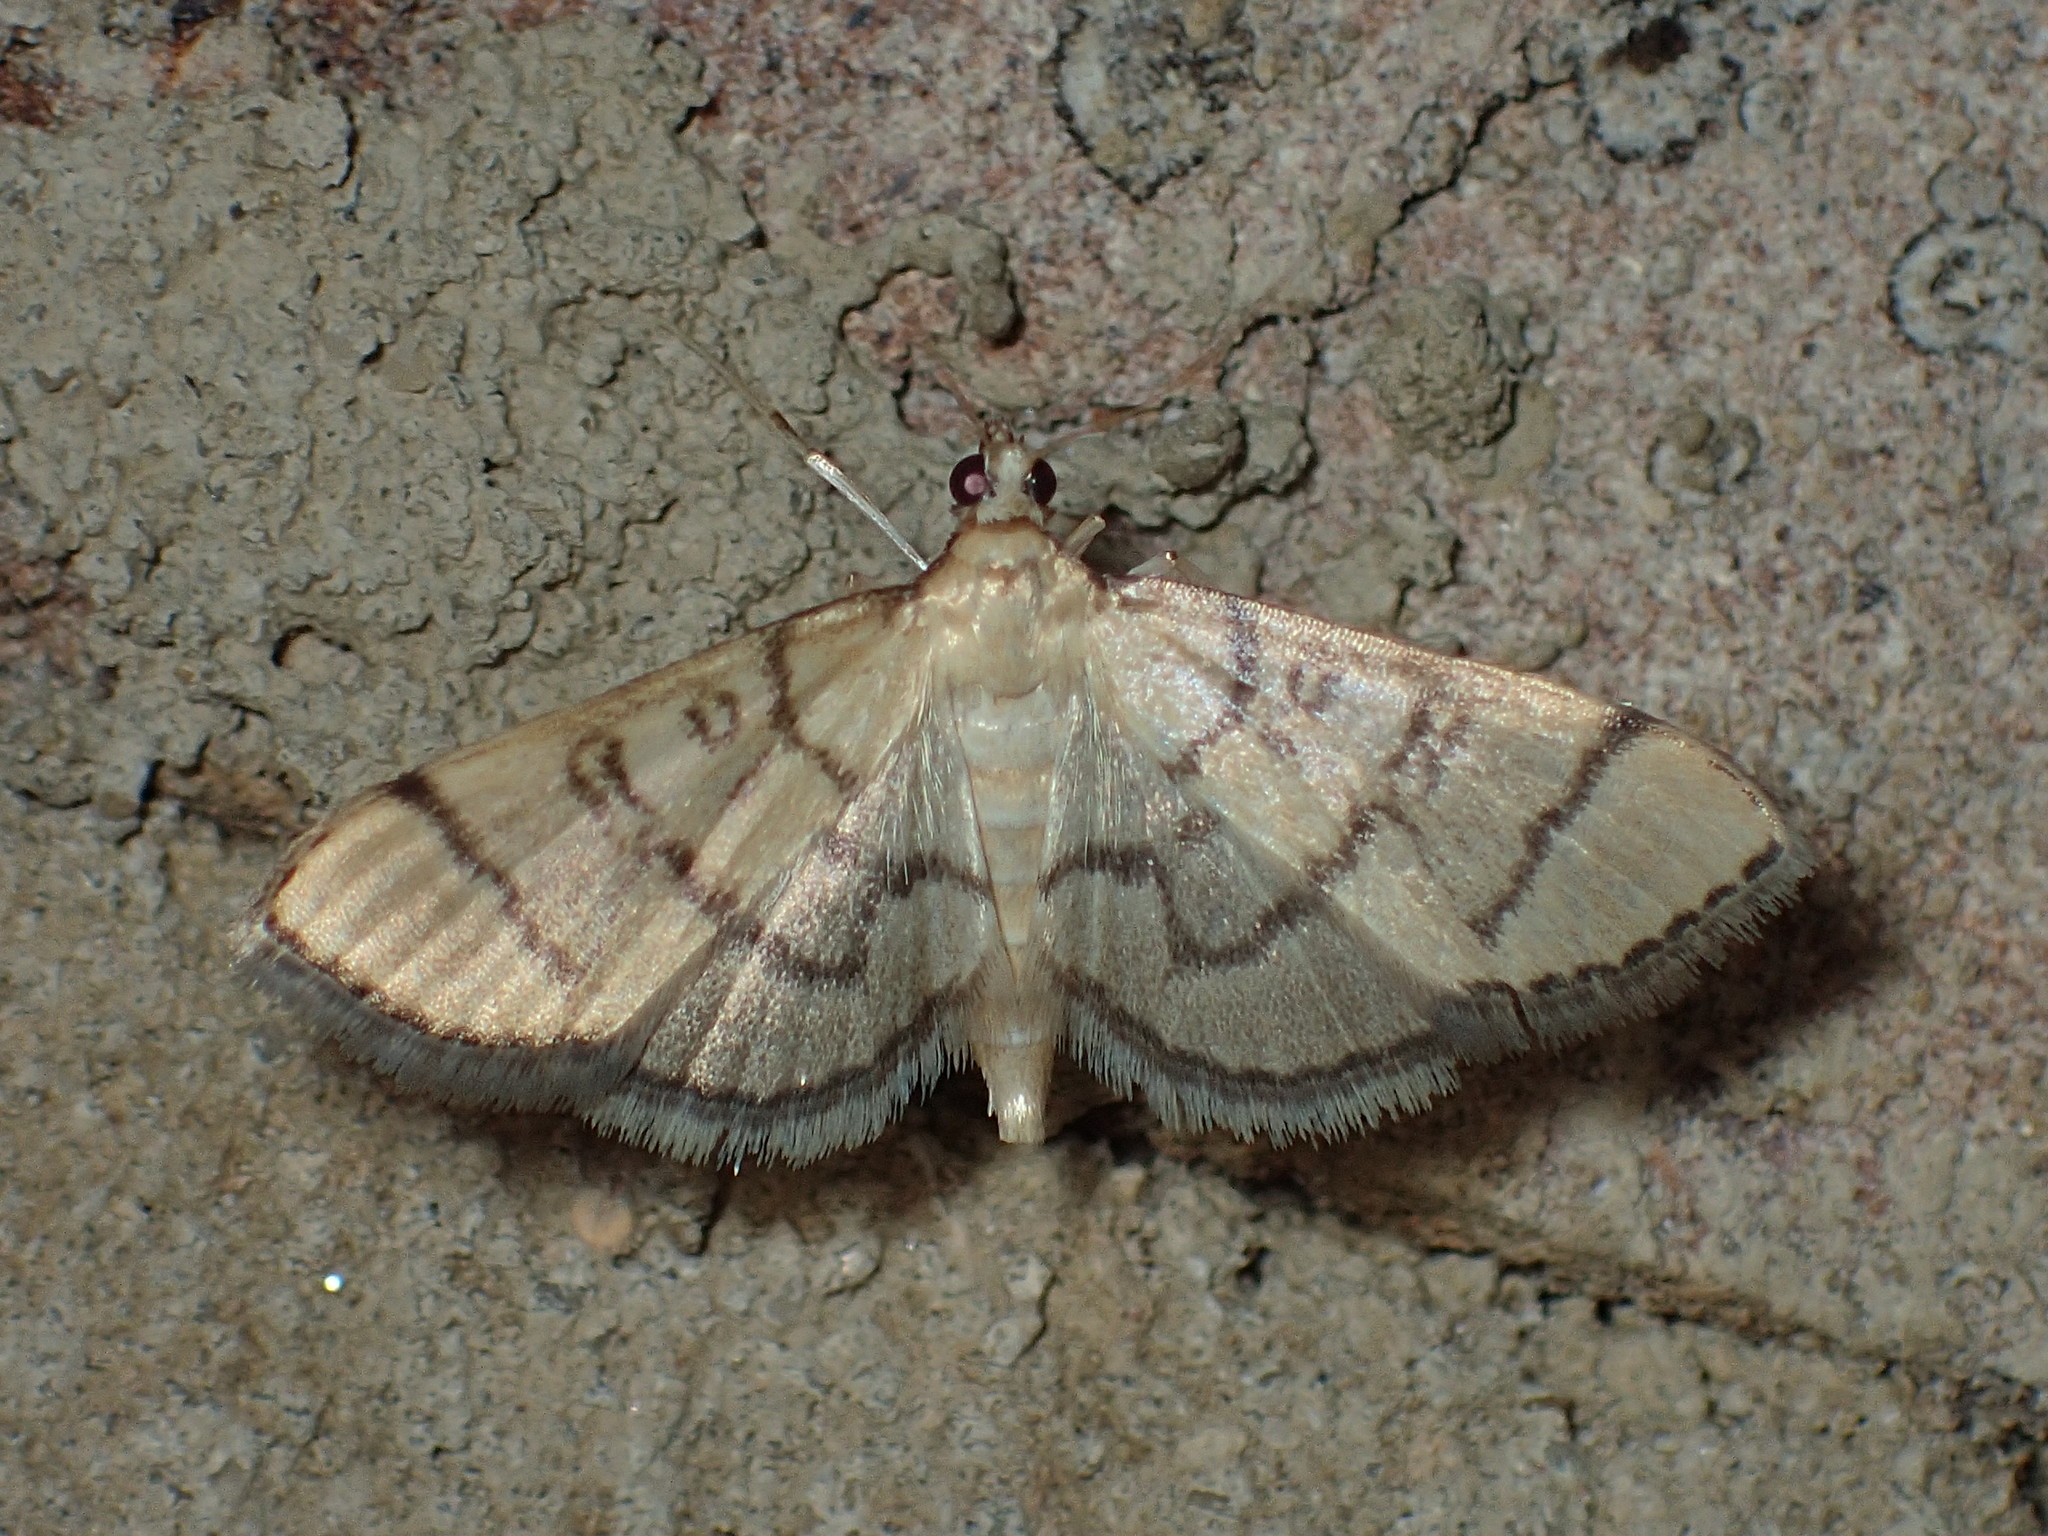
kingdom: Animalia
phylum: Arthropoda
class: Insecta
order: Lepidoptera
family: Crambidae
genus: Lamprosema
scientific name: Lamprosema Blepharomastix ranalis
